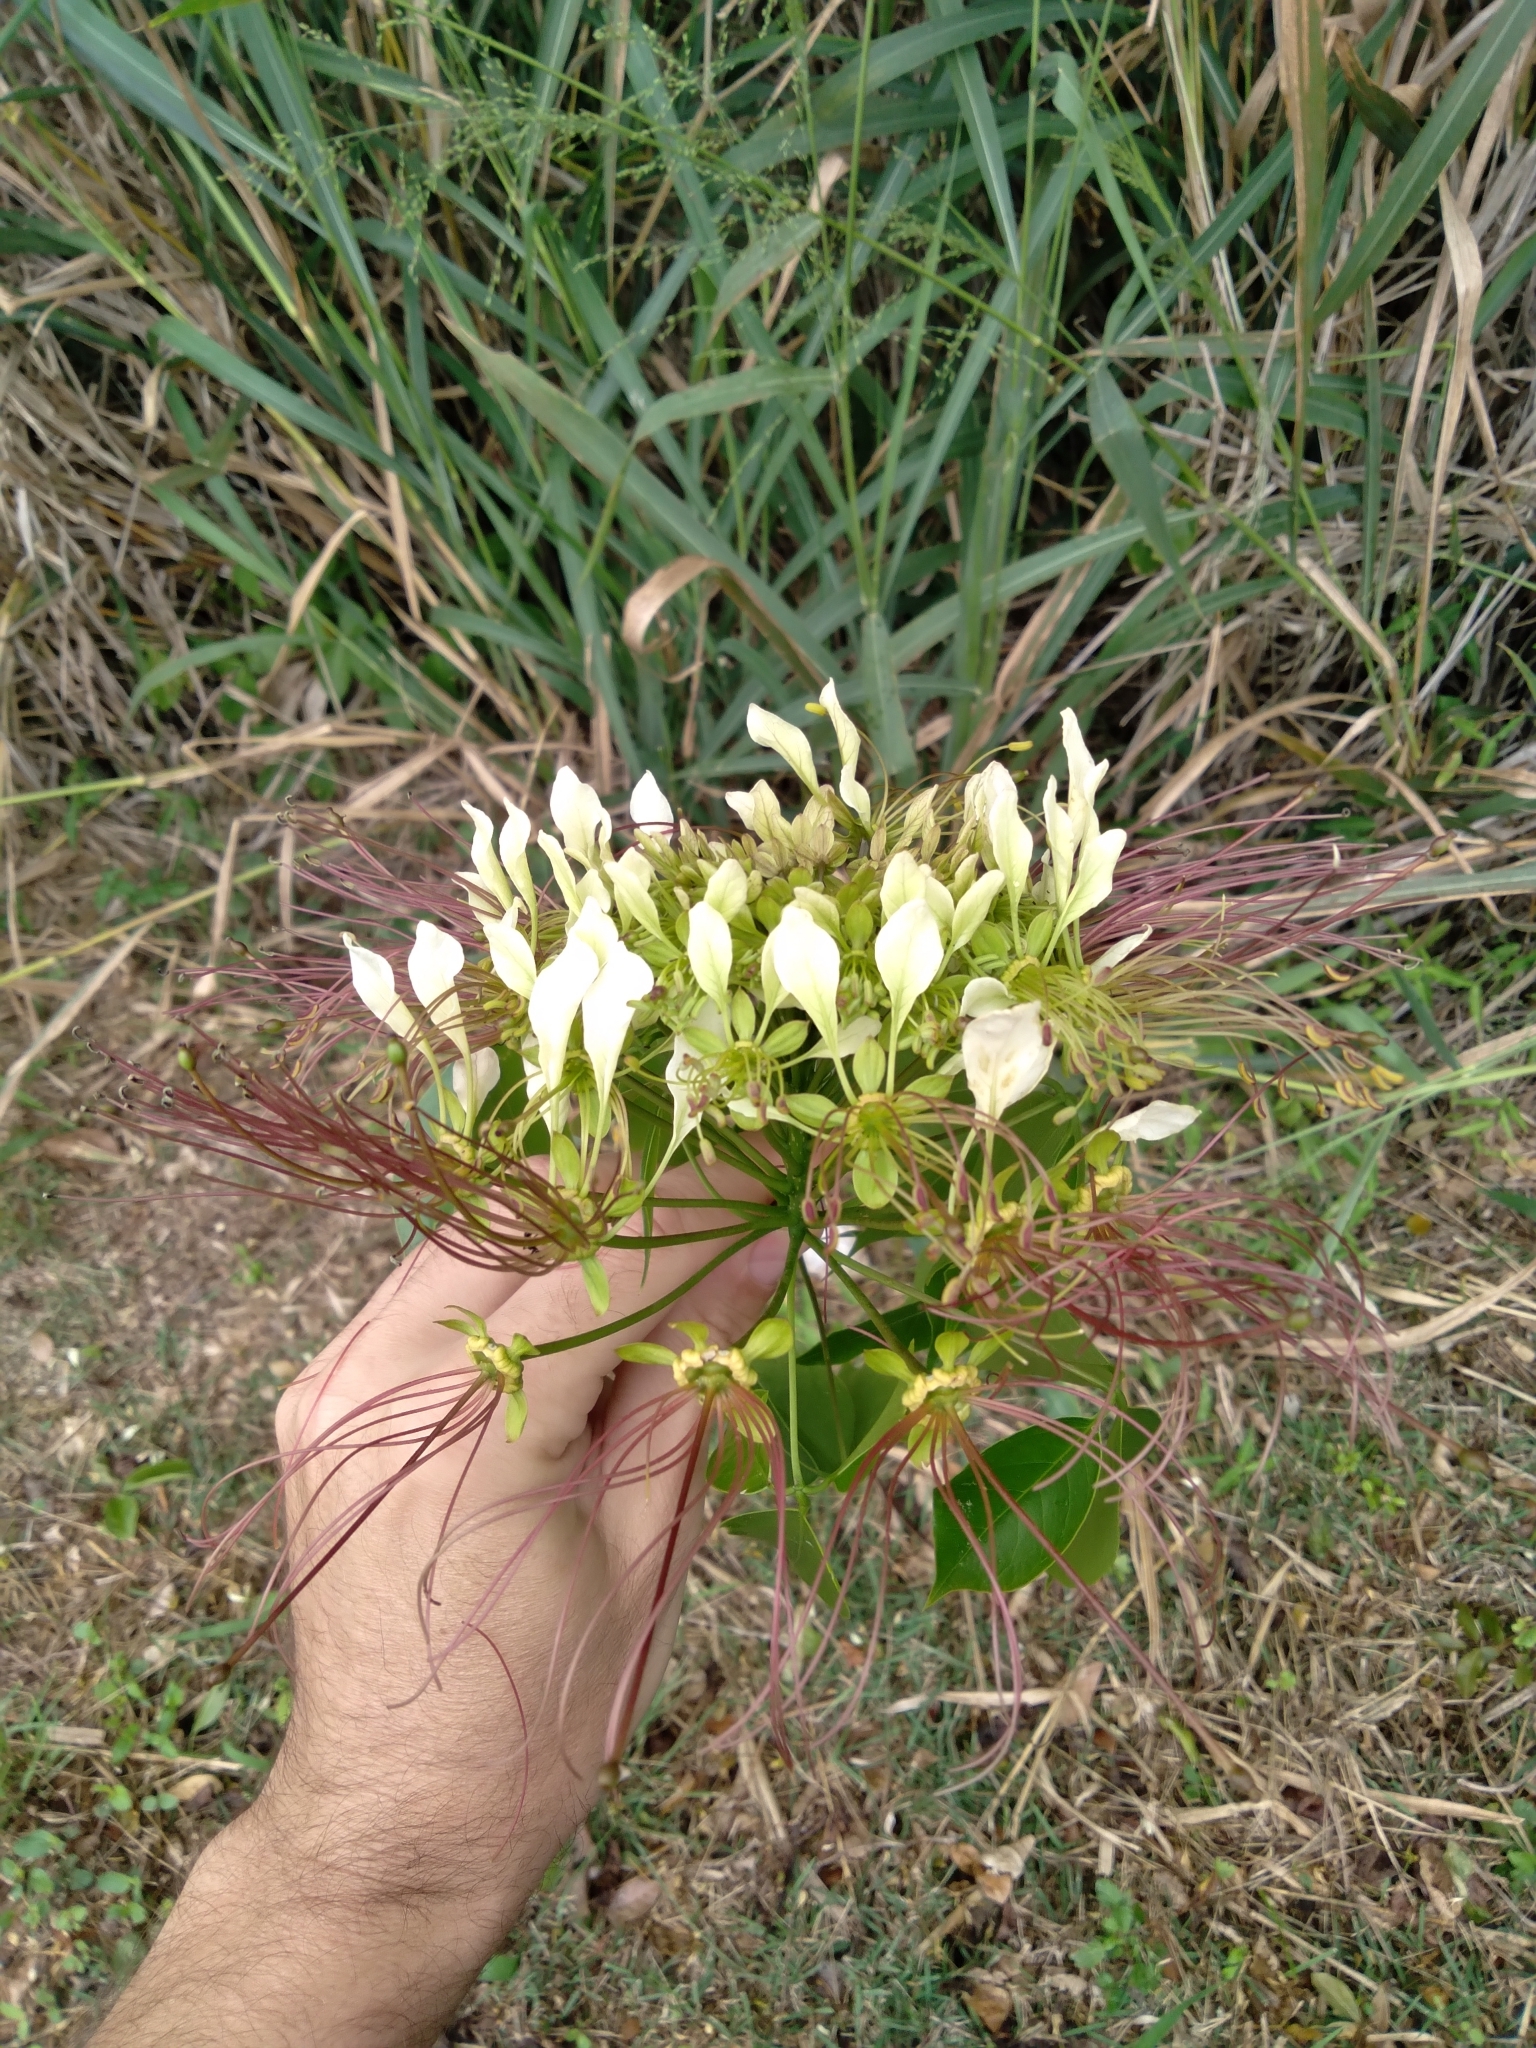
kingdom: Plantae
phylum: Tracheophyta
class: Magnoliopsida
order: Brassicales
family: Capparaceae
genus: Crateva
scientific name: Crateva tapia
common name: Garlic-pear
